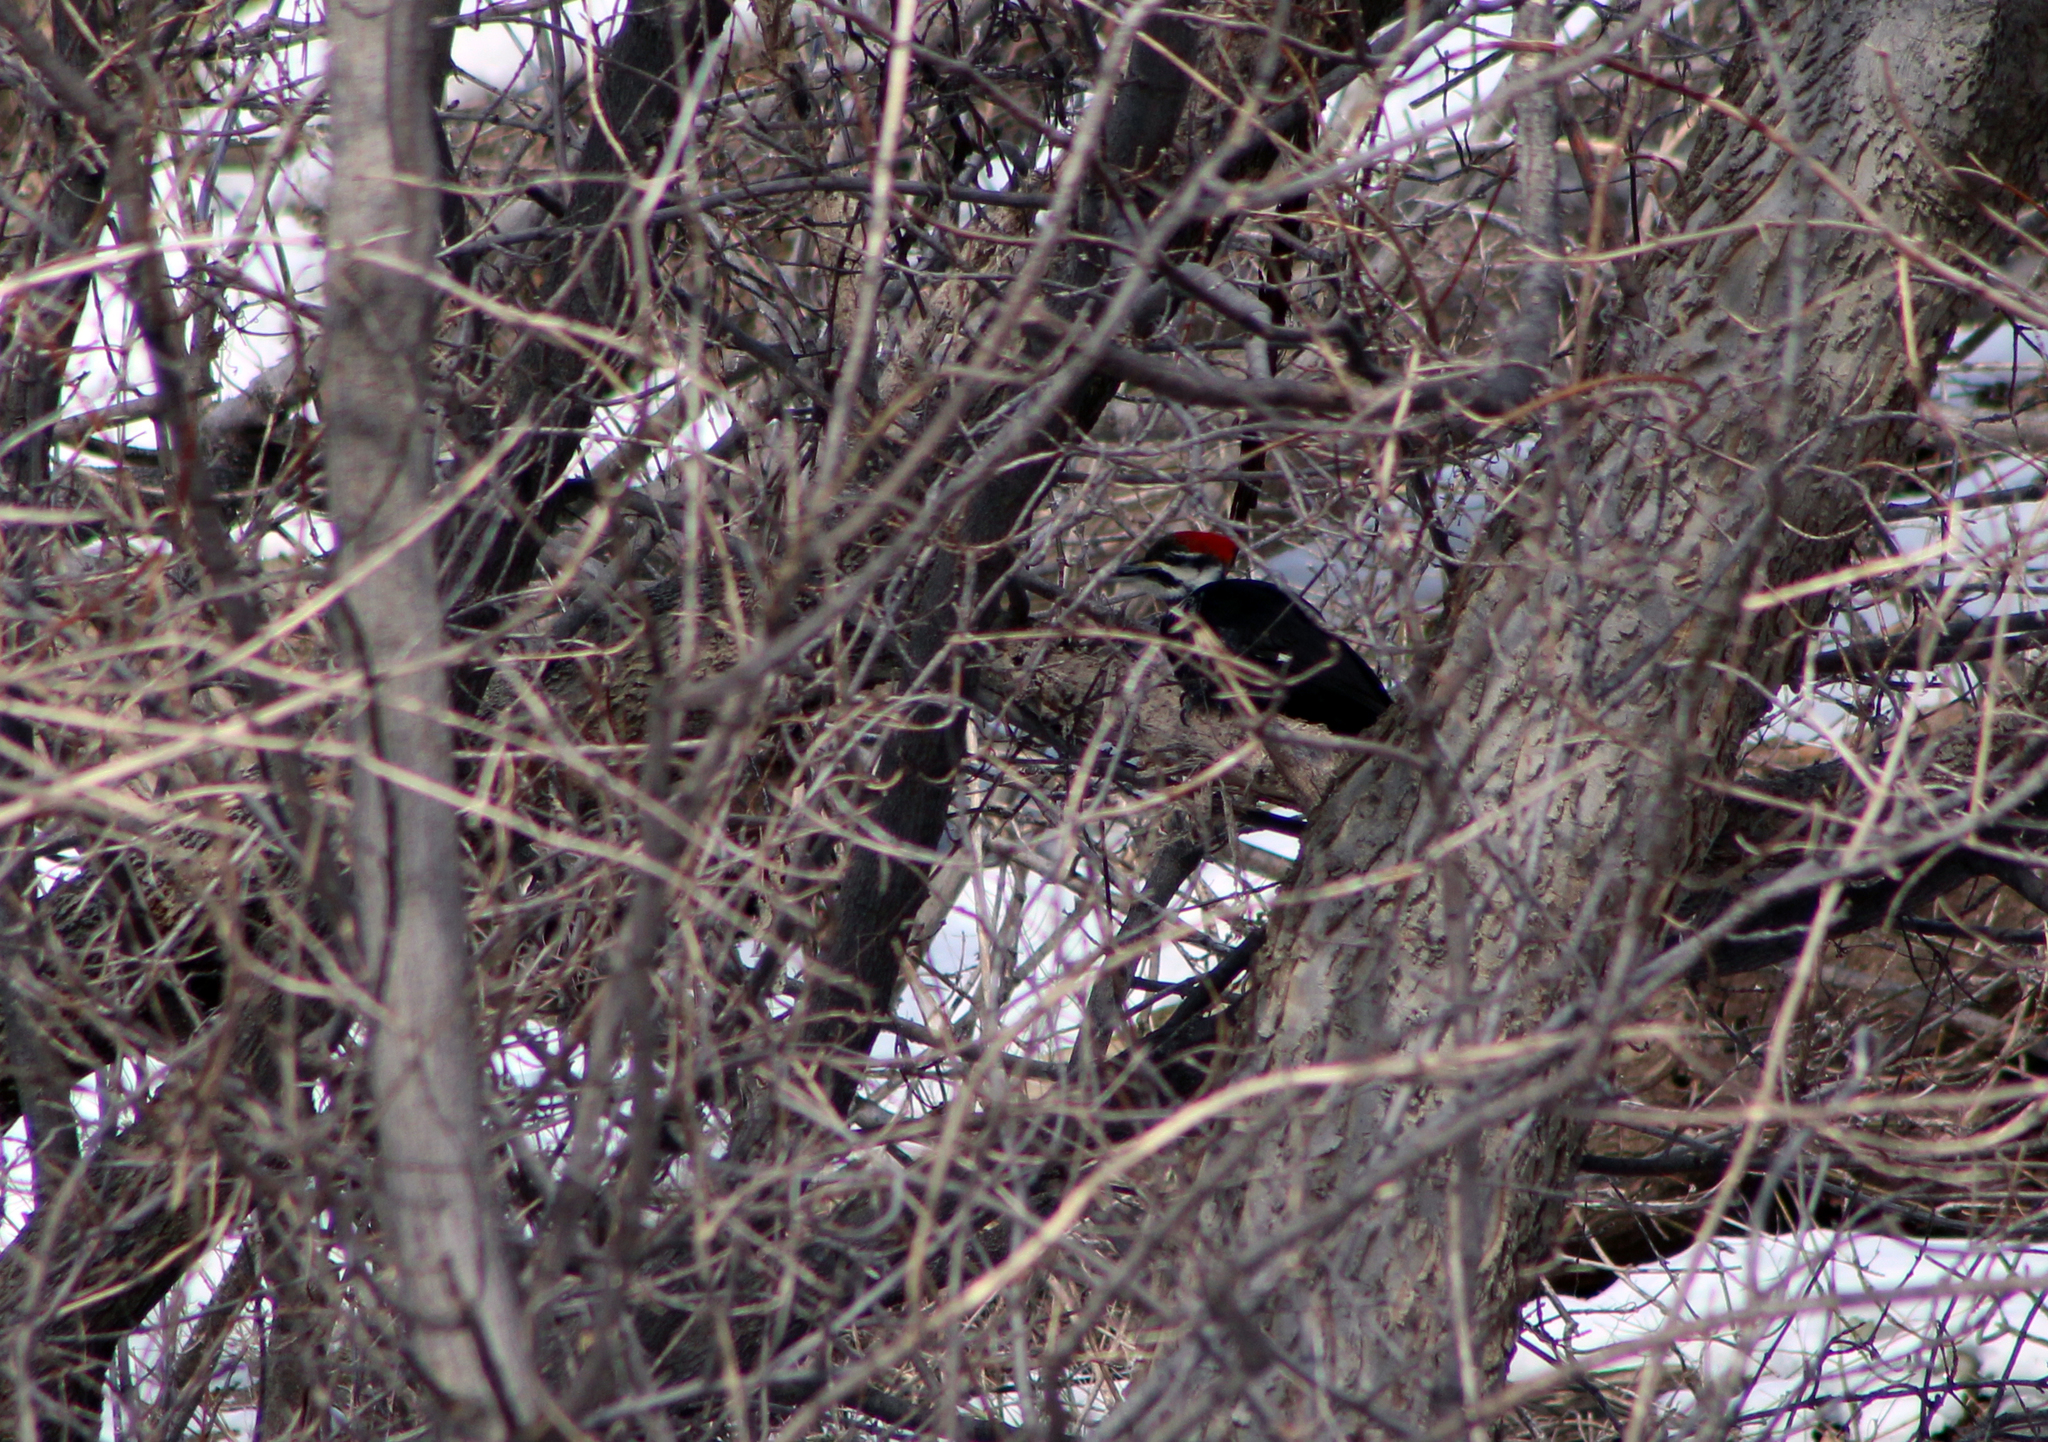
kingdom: Animalia
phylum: Chordata
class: Aves
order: Piciformes
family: Picidae
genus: Dryocopus
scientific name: Dryocopus pileatus
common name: Pileated woodpecker
